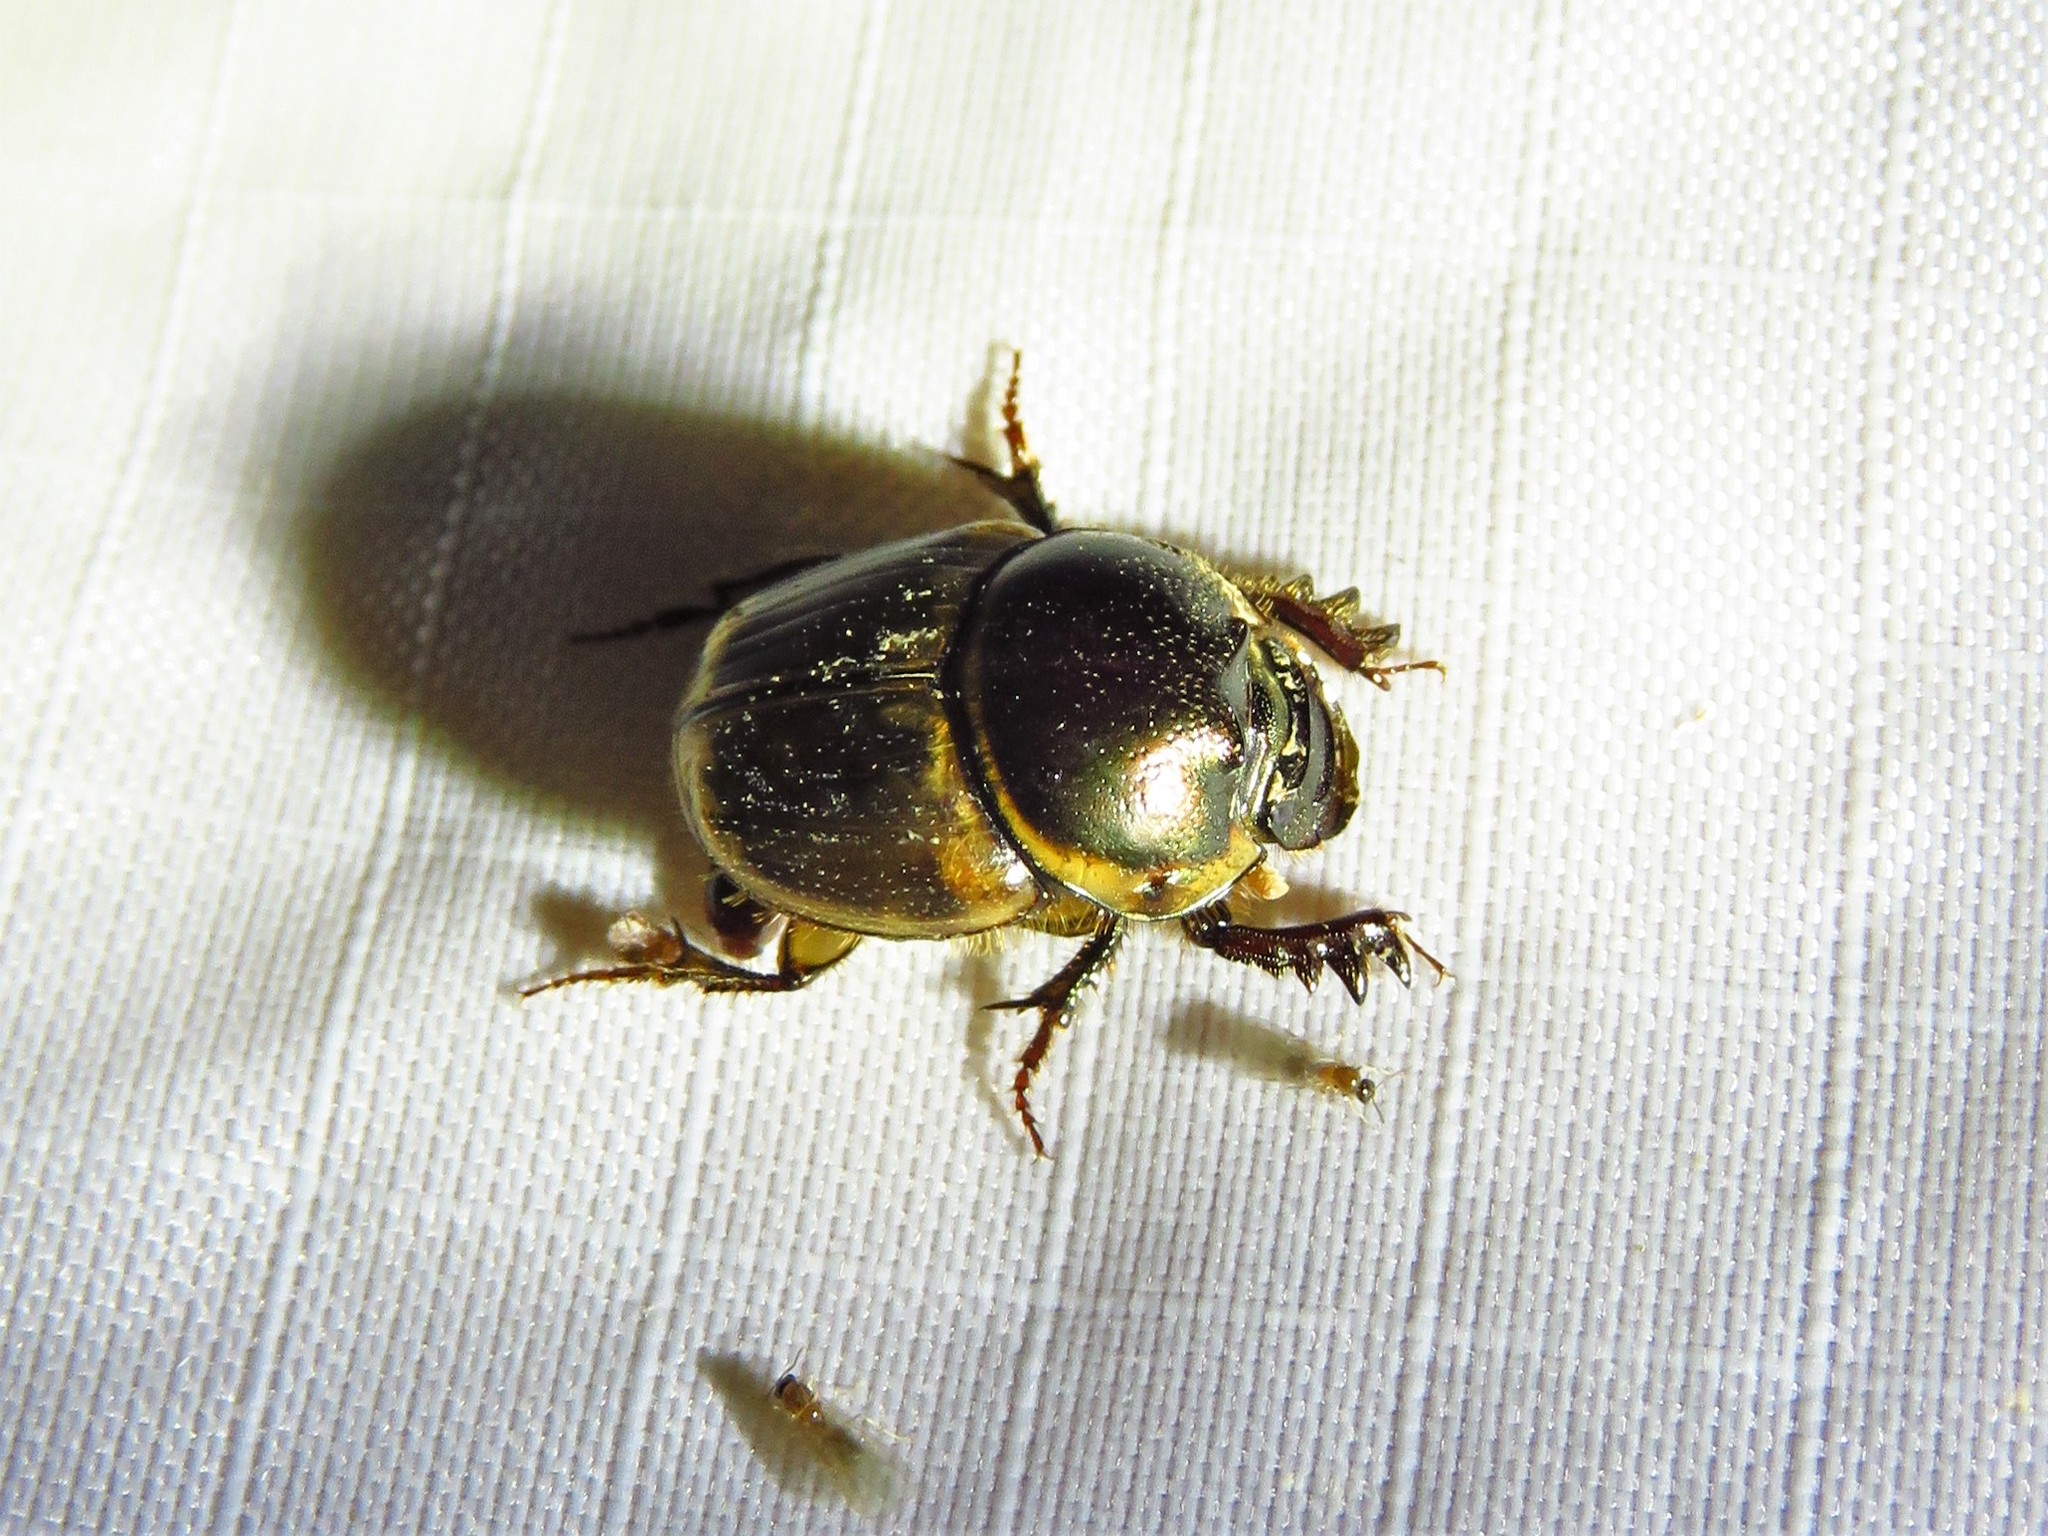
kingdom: Animalia
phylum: Arthropoda
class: Insecta
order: Coleoptera
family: Scarabaeidae
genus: Digitonthophagus
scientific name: Digitonthophagus gazella
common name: Brown dung beetle
